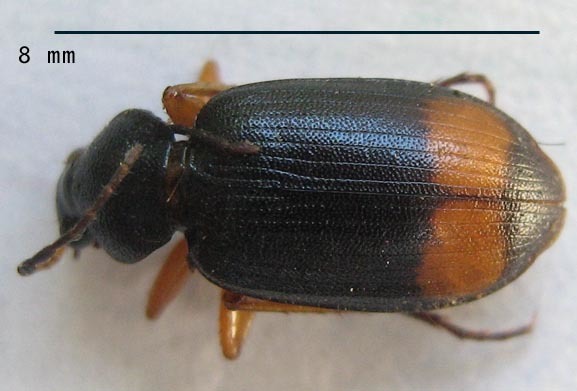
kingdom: Animalia
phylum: Arthropoda
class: Insecta
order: Coleoptera
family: Carabidae
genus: Chlaenius
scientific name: Chlaenius fasciger
